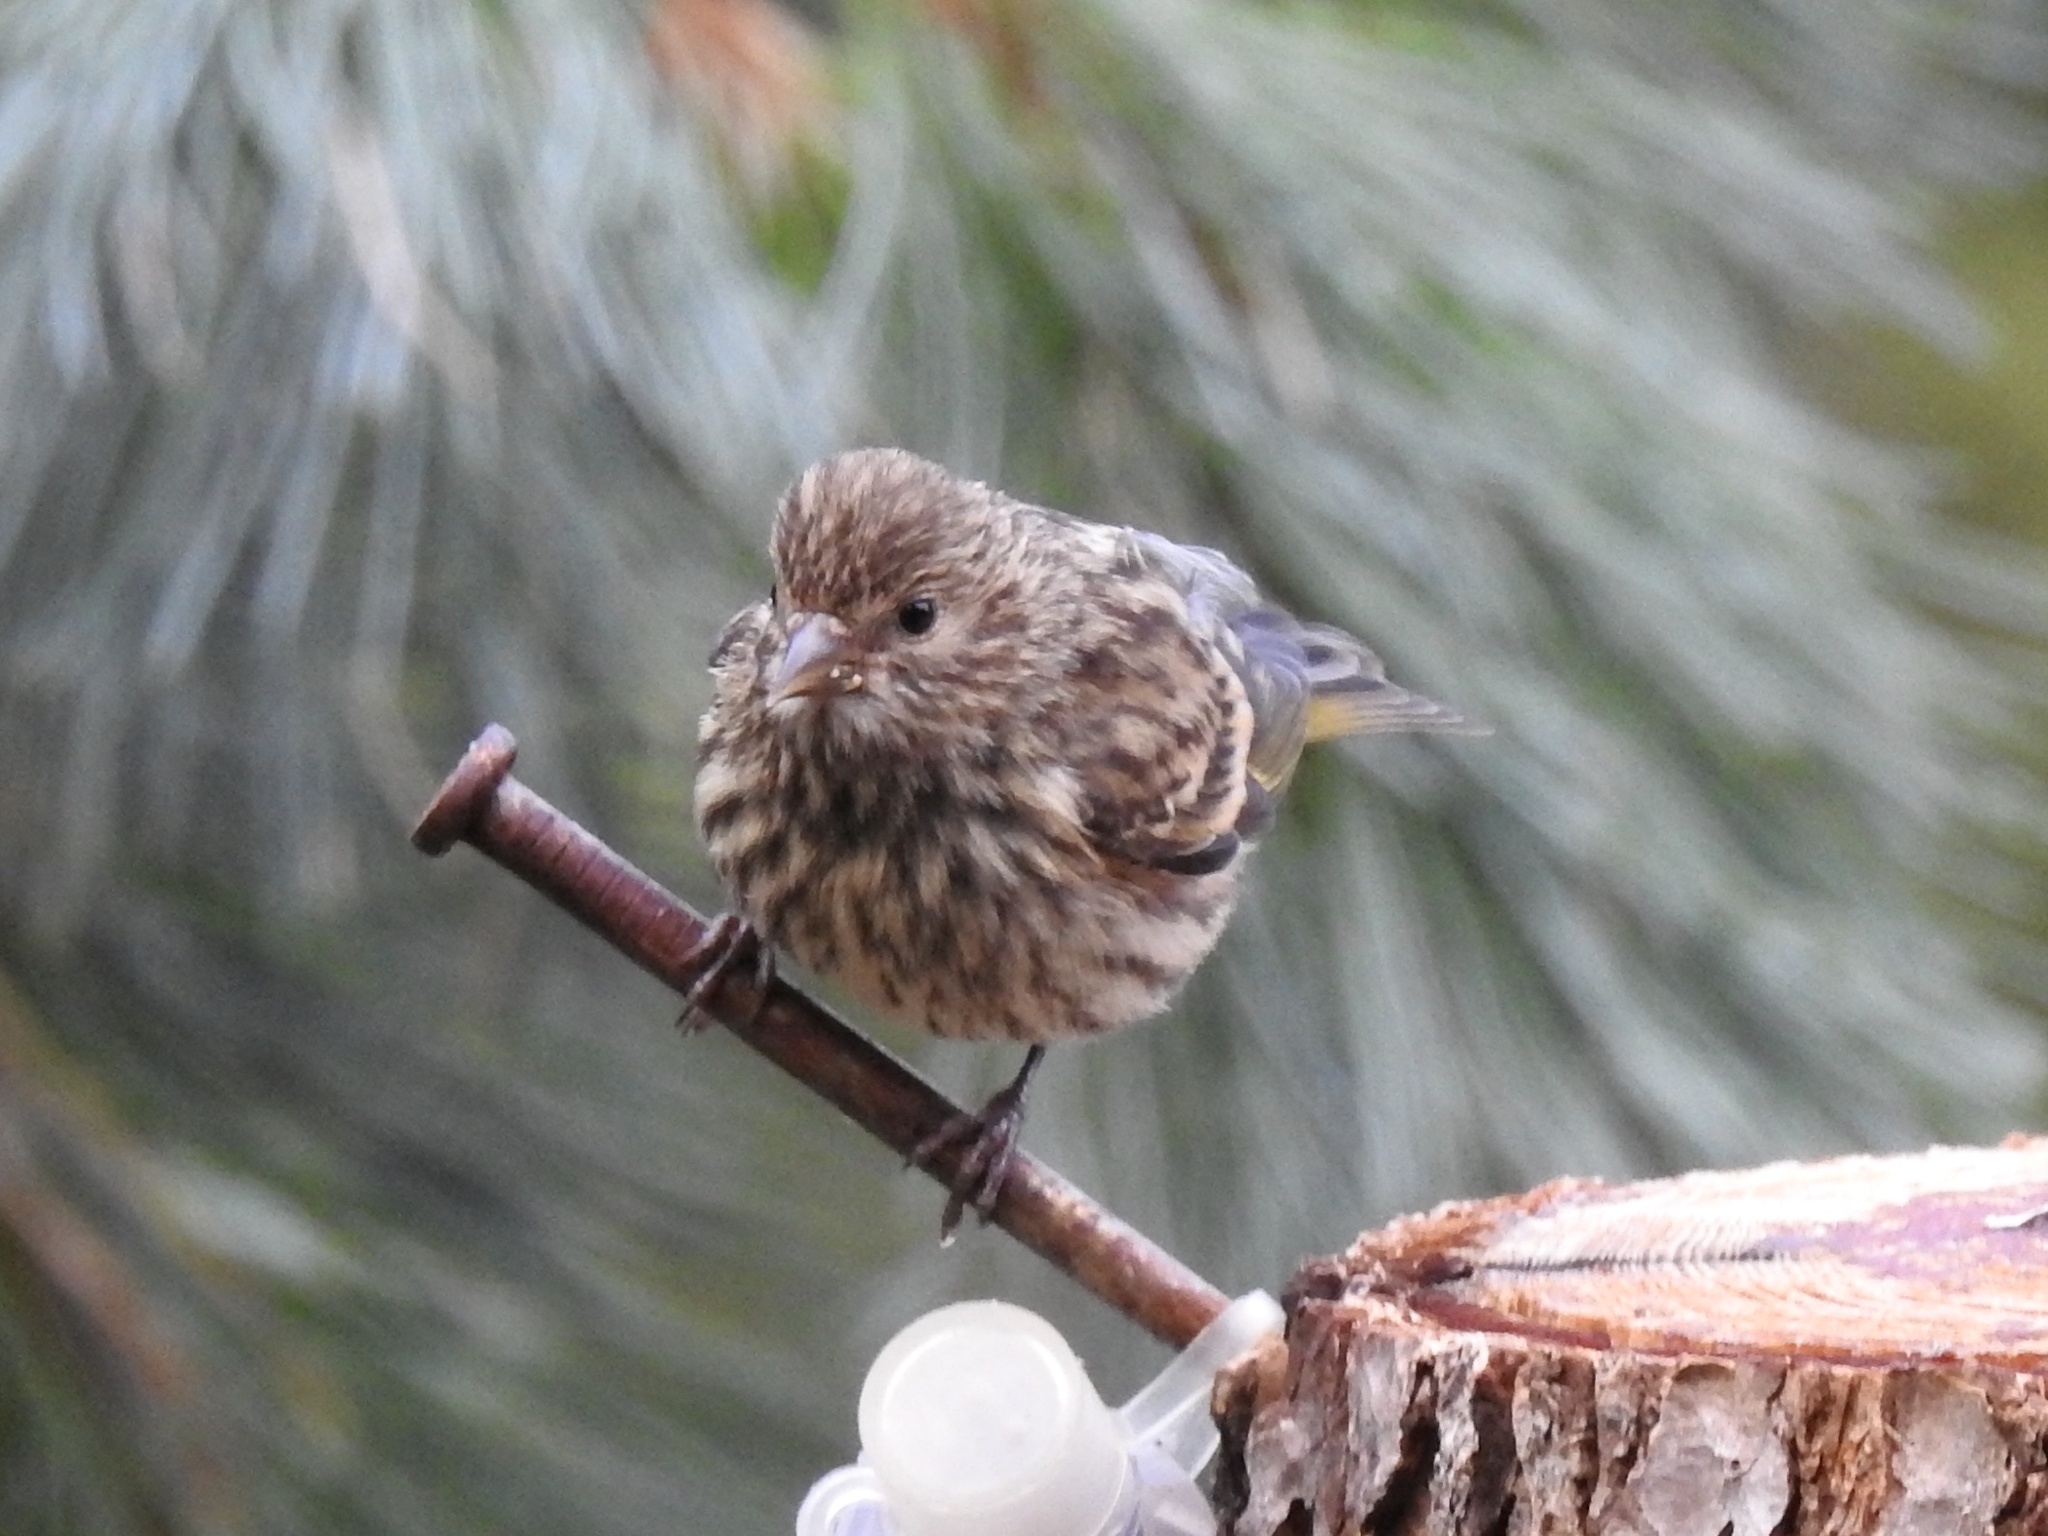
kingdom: Animalia
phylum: Chordata
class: Aves
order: Passeriformes
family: Fringillidae
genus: Spinus
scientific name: Spinus pinus
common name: Pine siskin
